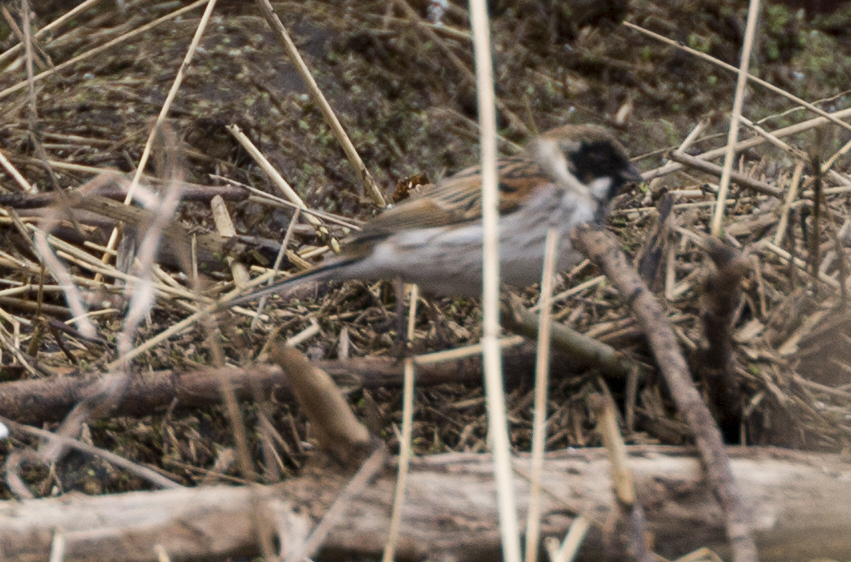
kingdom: Animalia
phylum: Chordata
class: Aves
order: Passeriformes
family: Emberizidae
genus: Emberiza
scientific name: Emberiza schoeniclus
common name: Reed bunting
